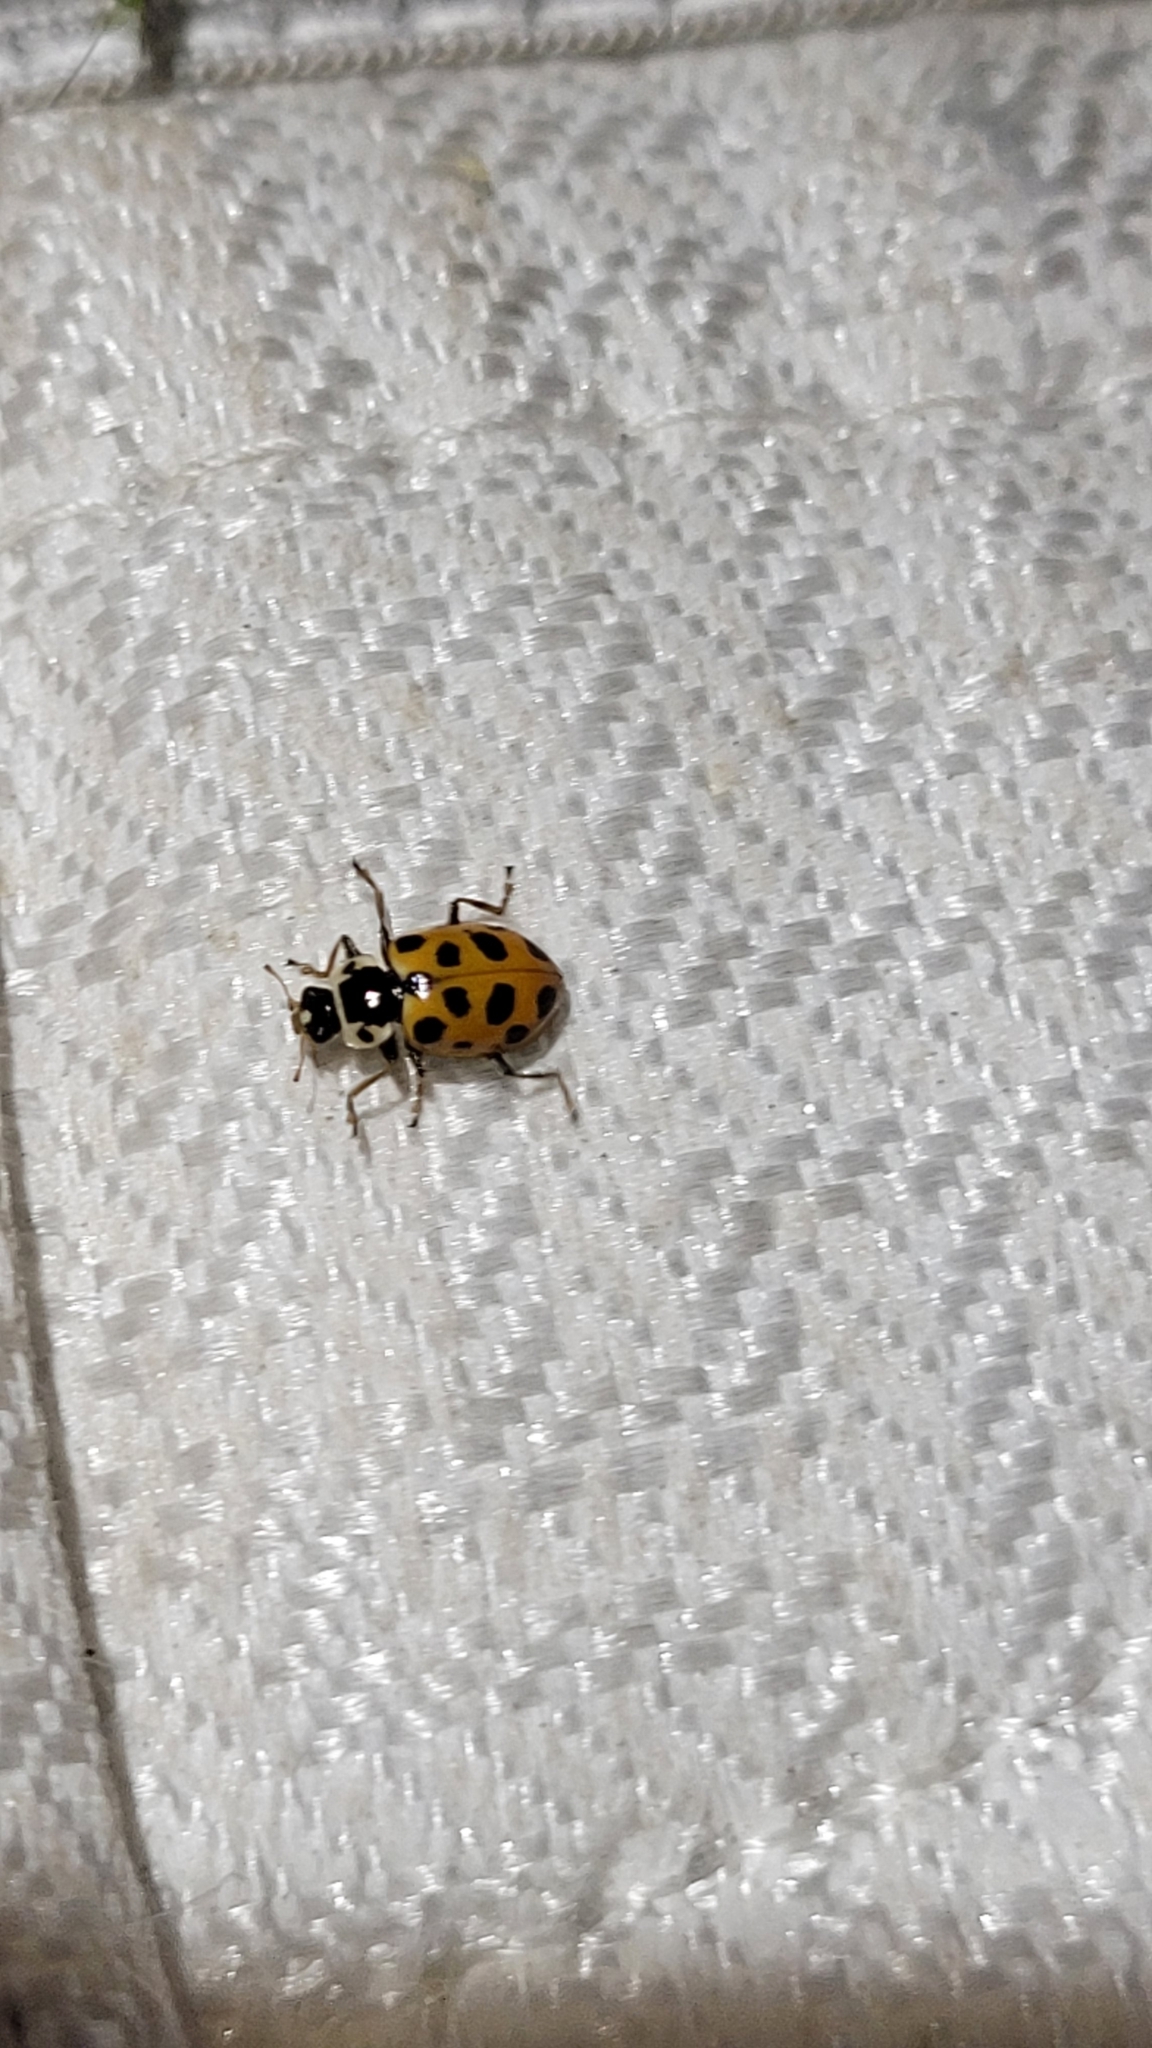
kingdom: Animalia
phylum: Arthropoda
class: Insecta
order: Coleoptera
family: Coccinellidae
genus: Hippodamia
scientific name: Hippodamia tredecimpunctata
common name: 13-spot ladybird
